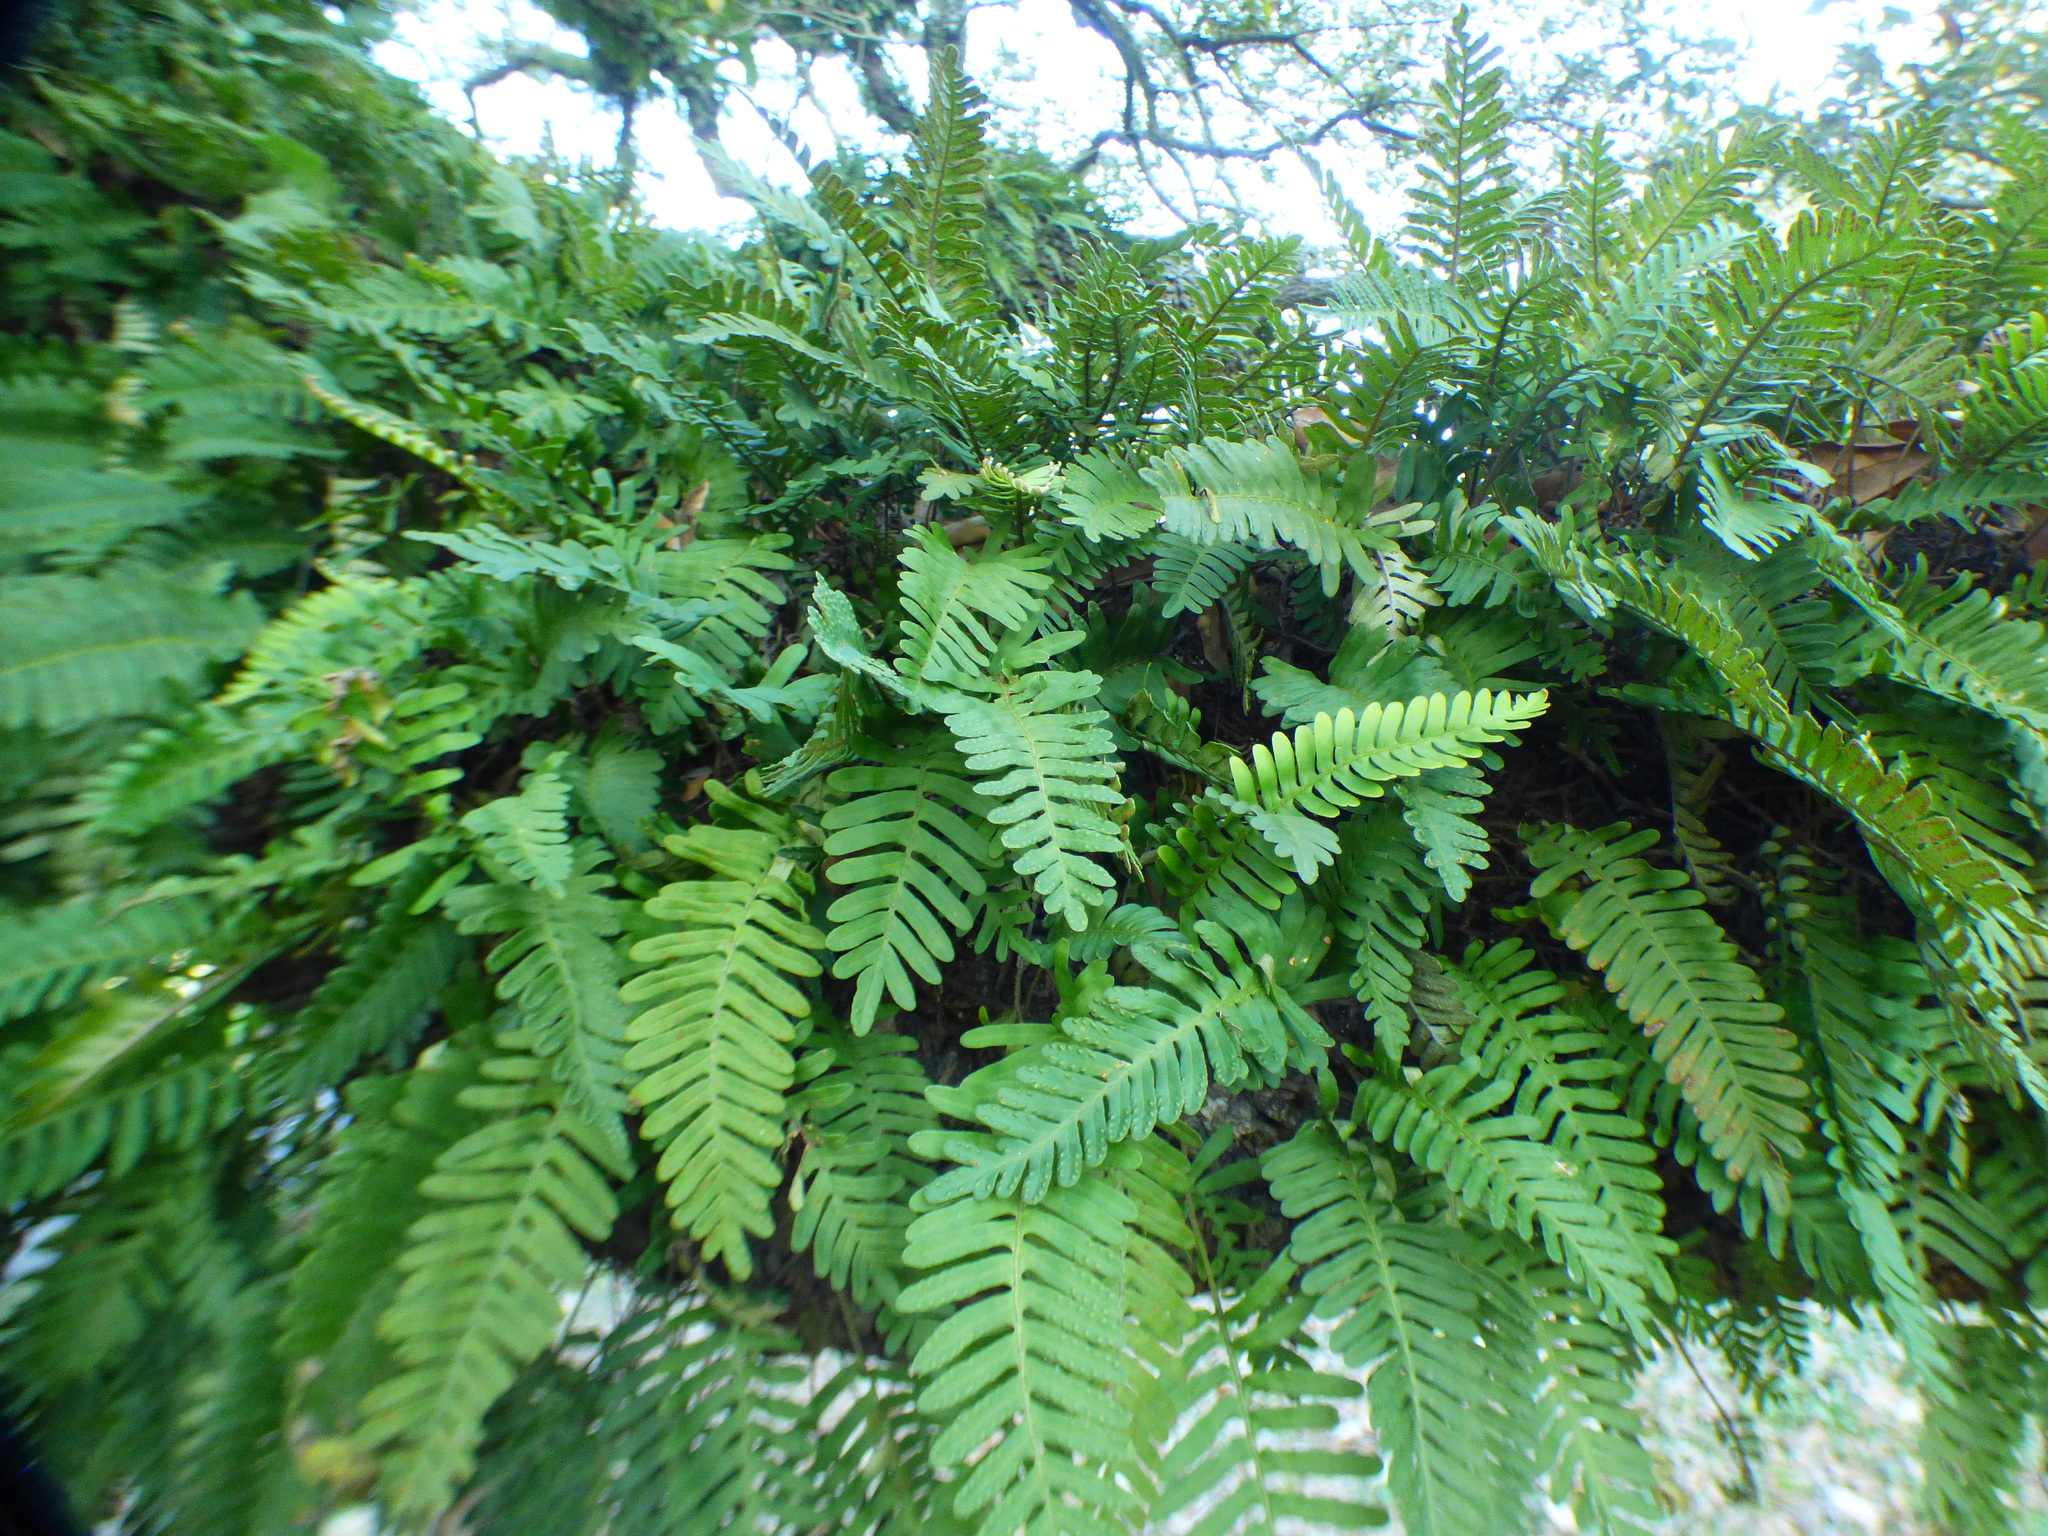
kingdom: Plantae
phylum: Tracheophyta
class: Polypodiopsida
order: Polypodiales
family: Polypodiaceae
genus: Pleopeltis
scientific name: Pleopeltis michauxiana
